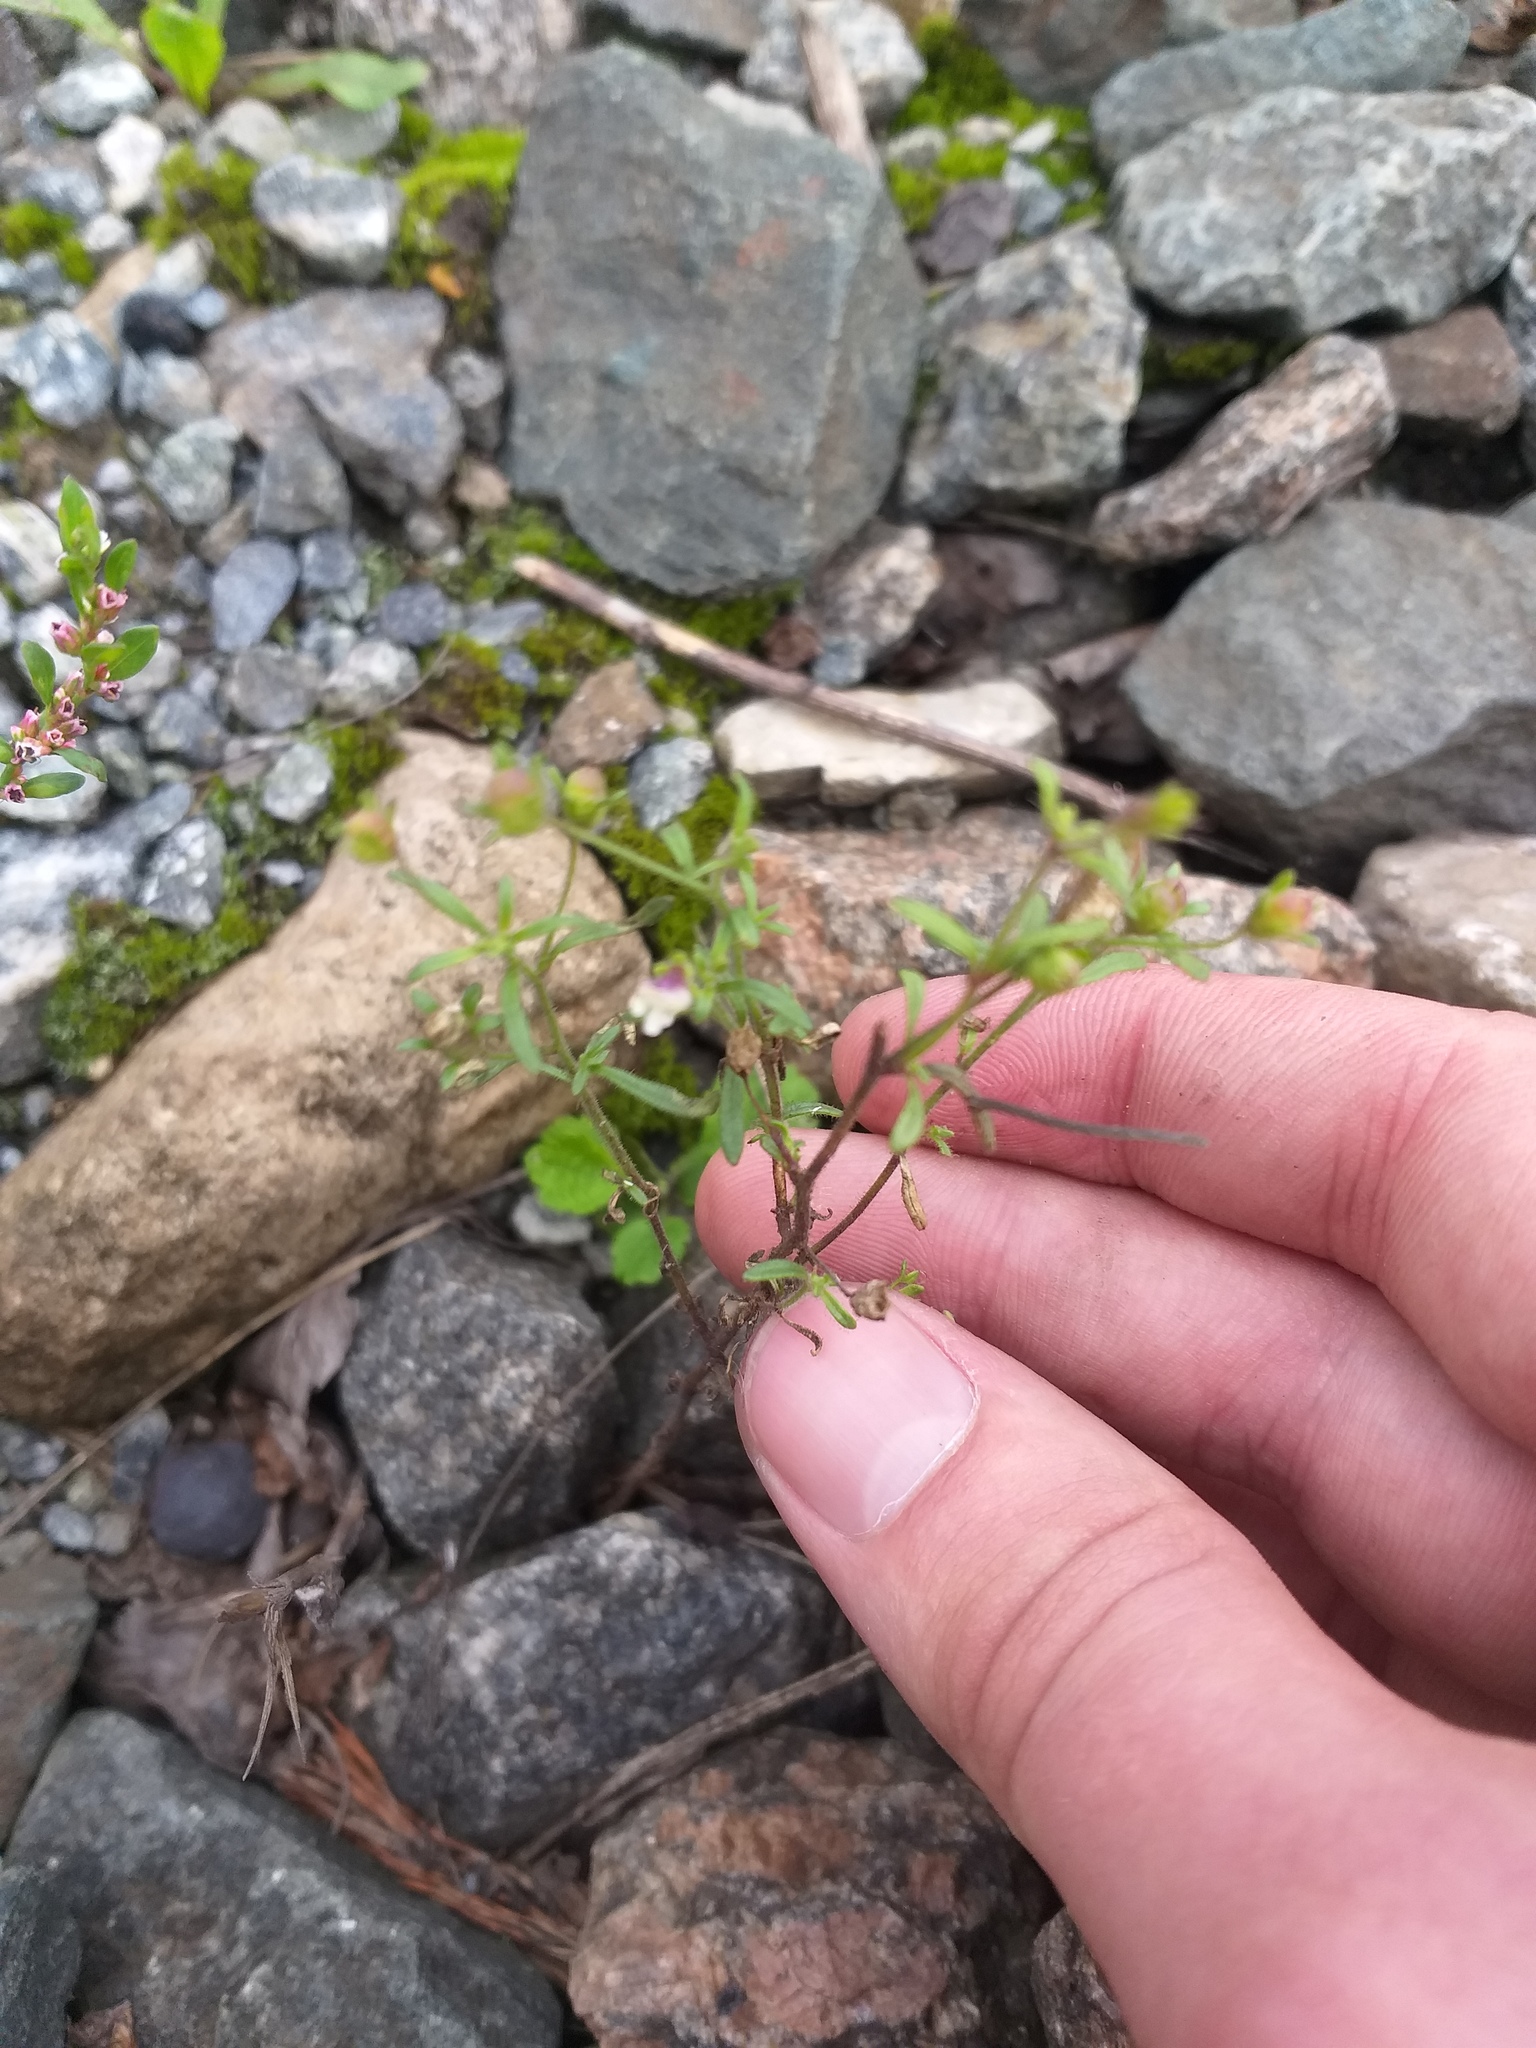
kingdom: Plantae
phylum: Tracheophyta
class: Magnoliopsida
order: Lamiales
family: Plantaginaceae
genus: Chaenorhinum
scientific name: Chaenorhinum minus
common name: Dwarf snapdragon
